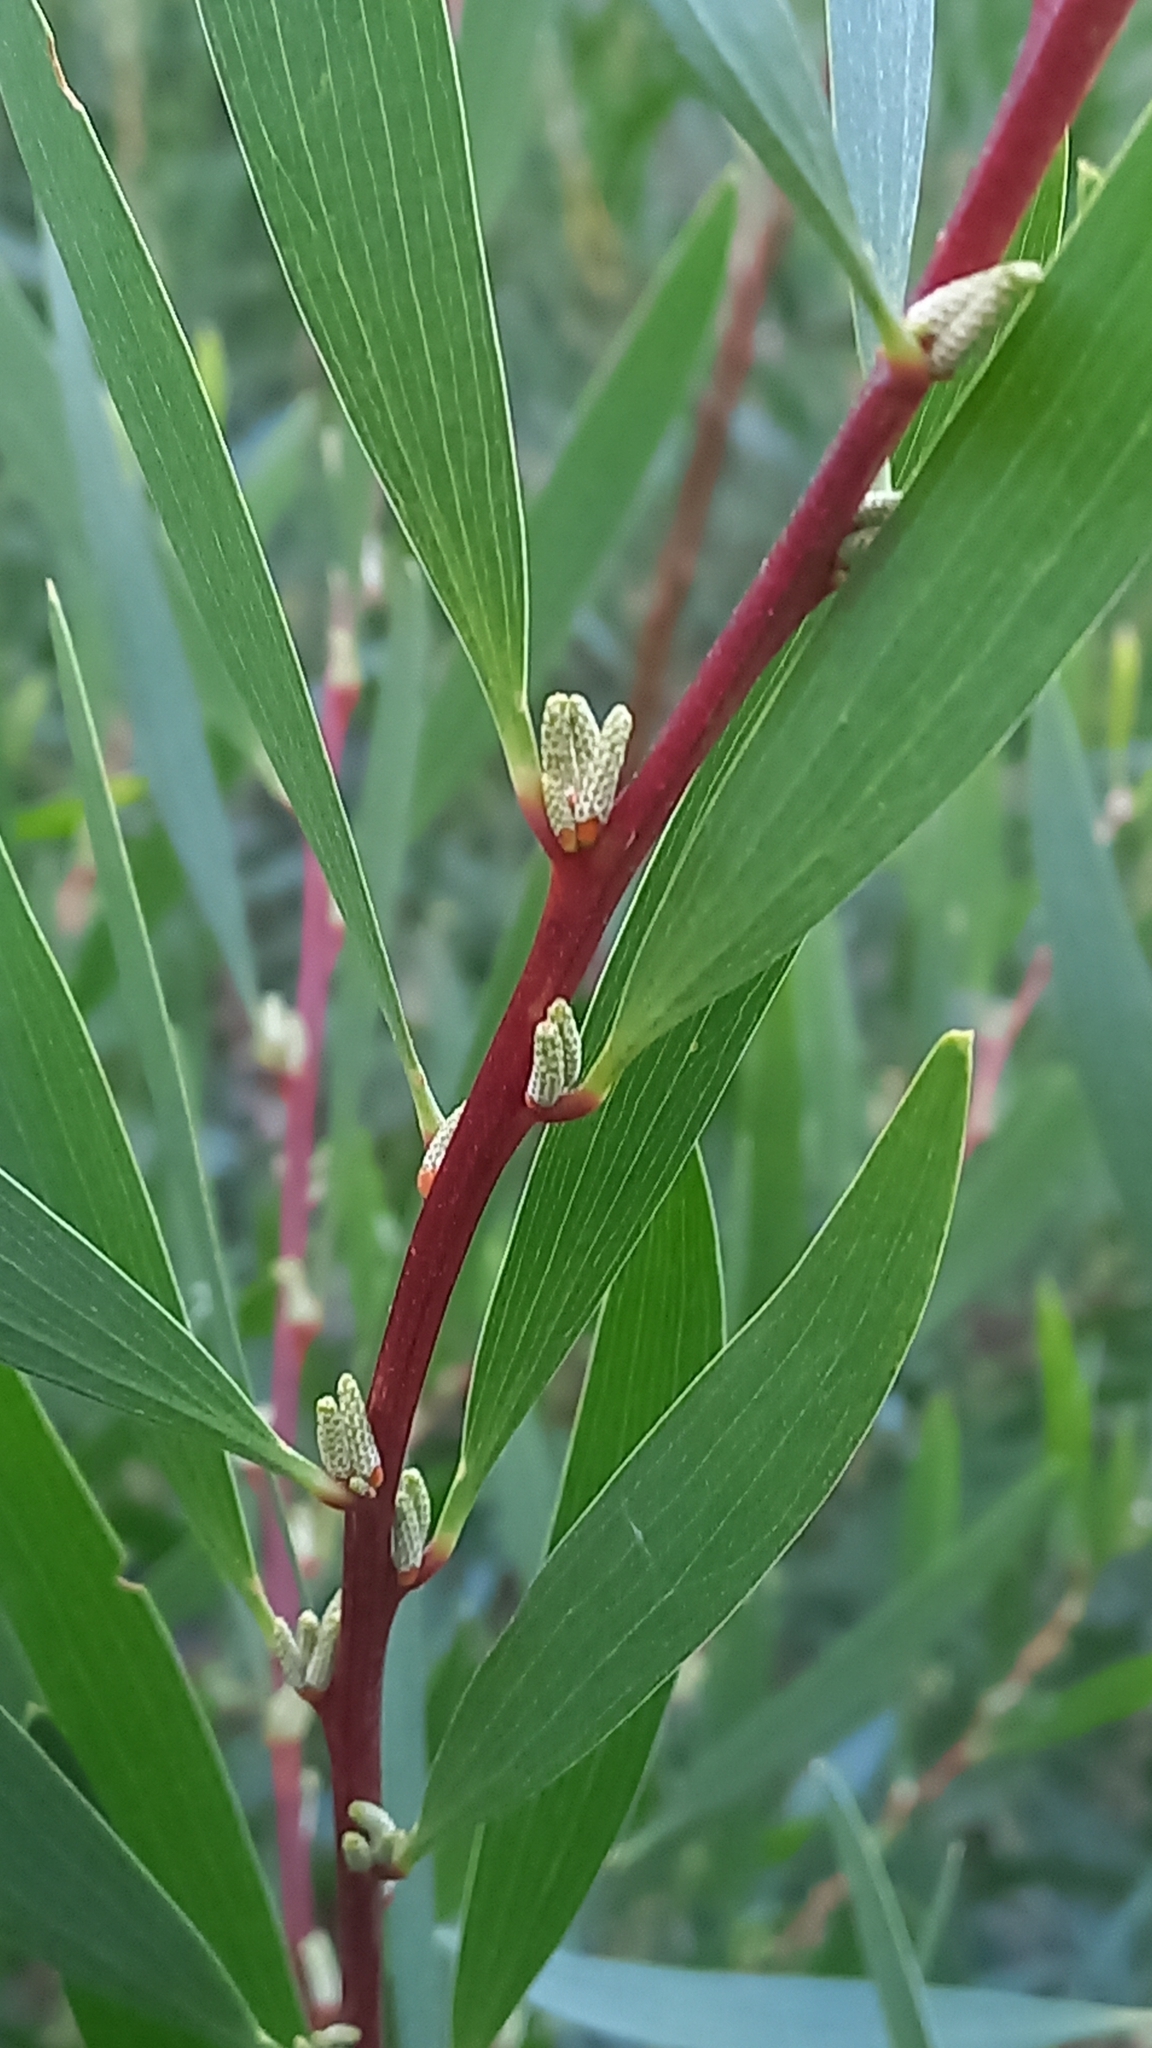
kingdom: Plantae
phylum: Tracheophyta
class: Magnoliopsida
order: Fabales
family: Fabaceae
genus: Acacia
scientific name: Acacia longifolia
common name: Sydney golden wattle
